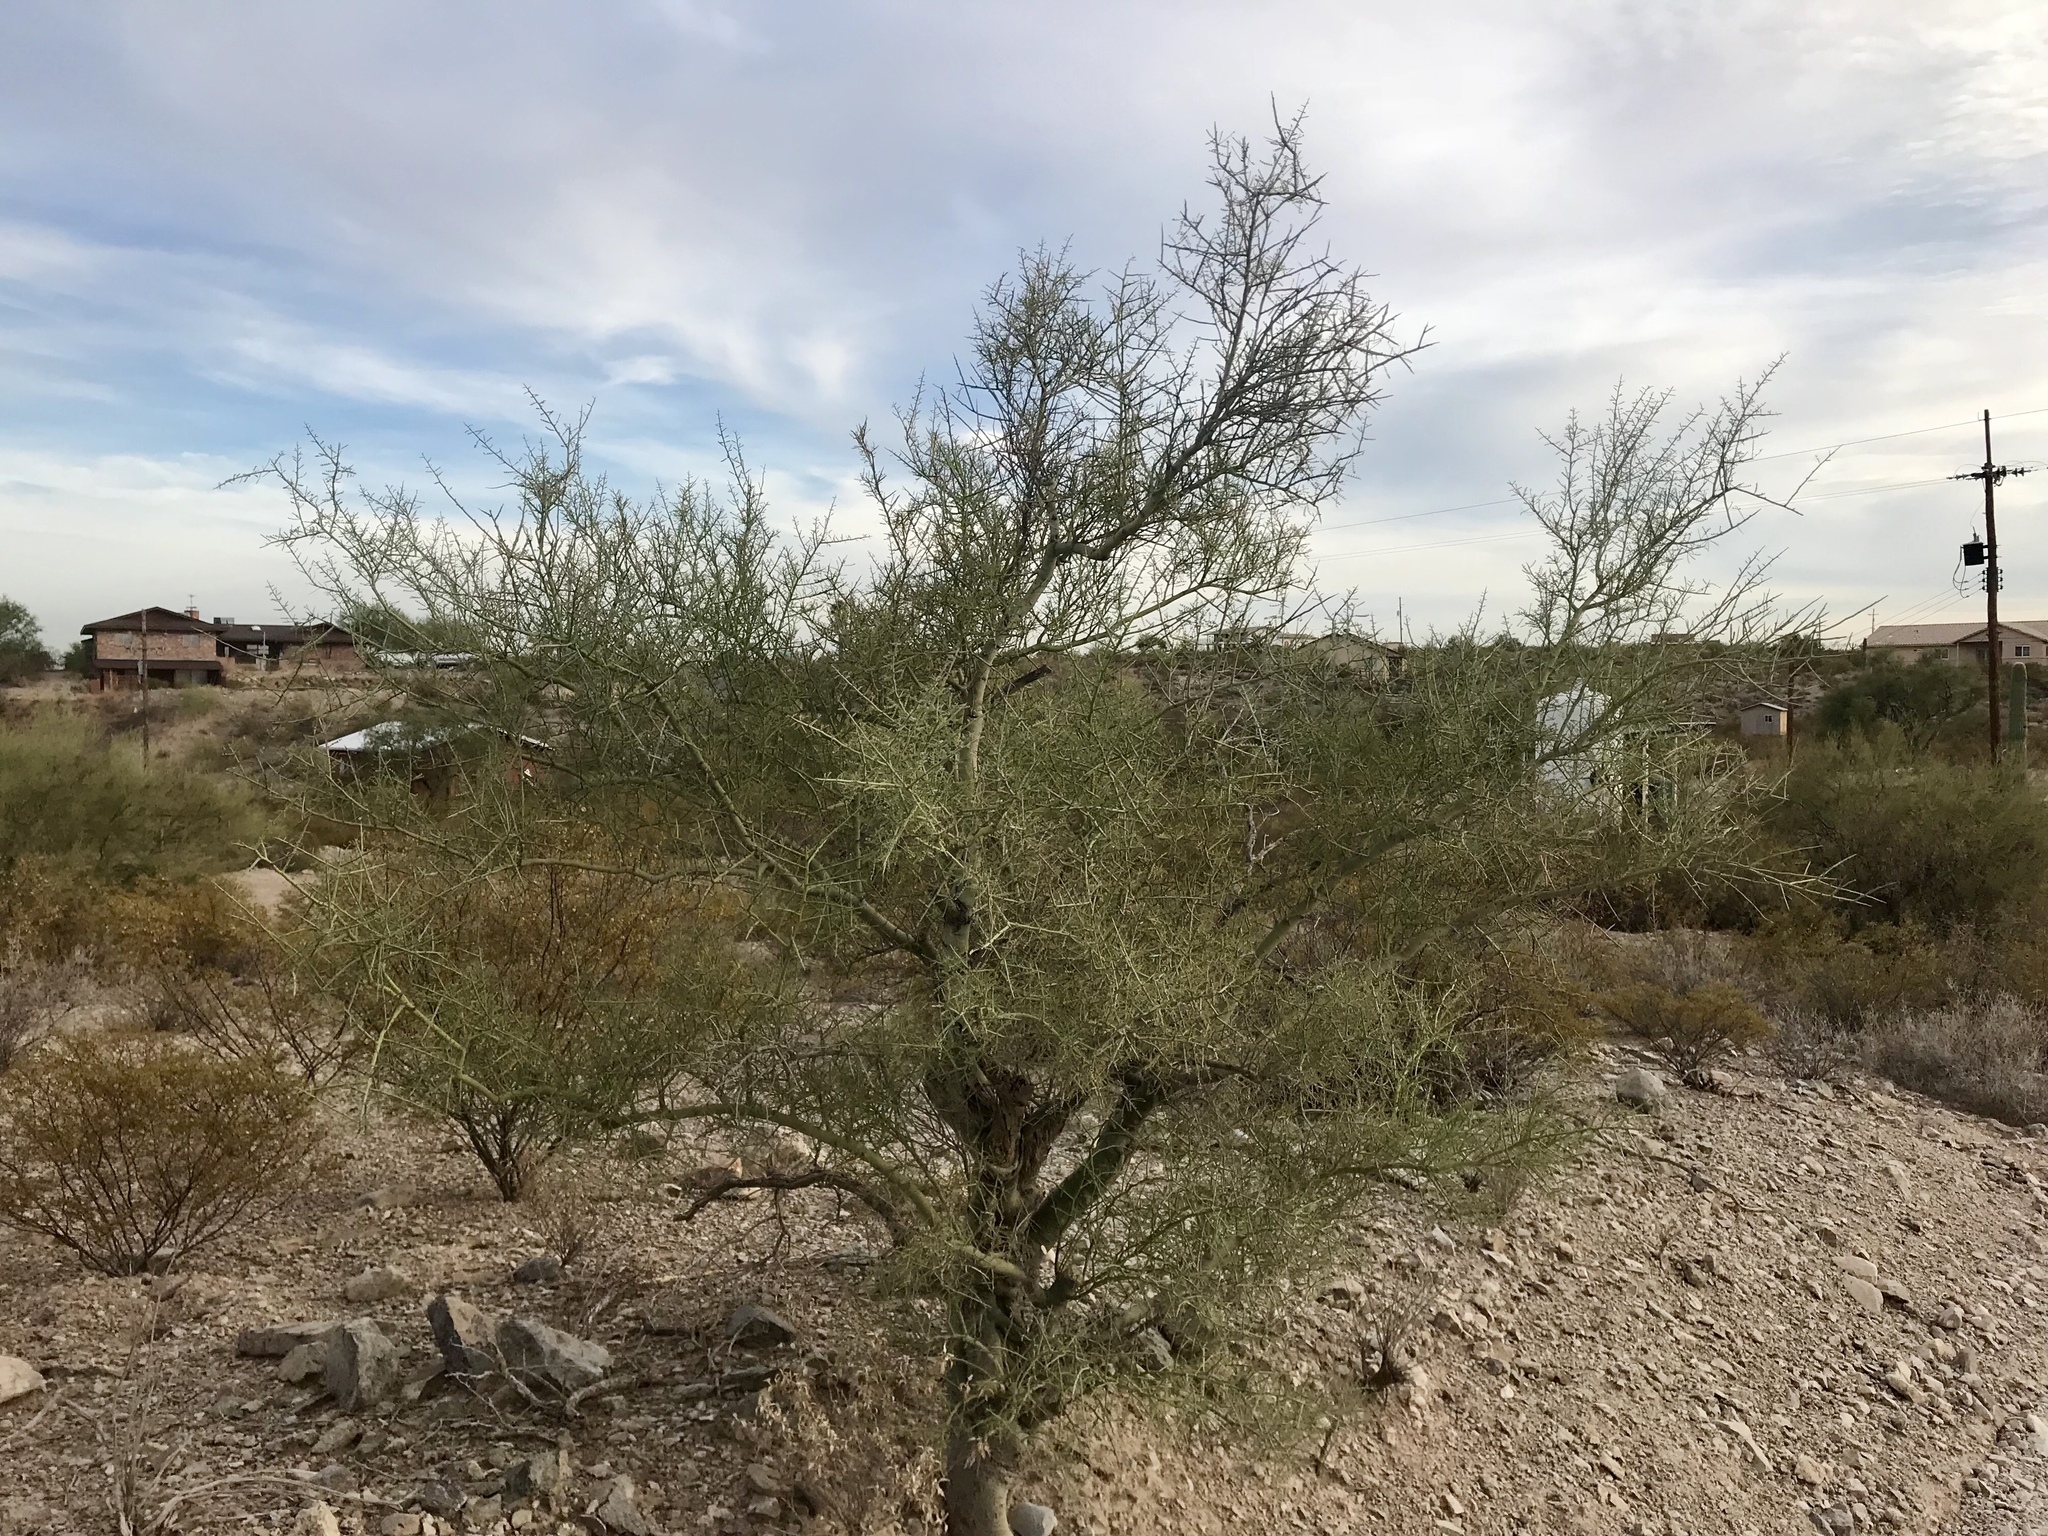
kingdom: Plantae
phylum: Tracheophyta
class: Magnoliopsida
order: Fabales
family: Fabaceae
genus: Parkinsonia
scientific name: Parkinsonia florida
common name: Blue paloverde
